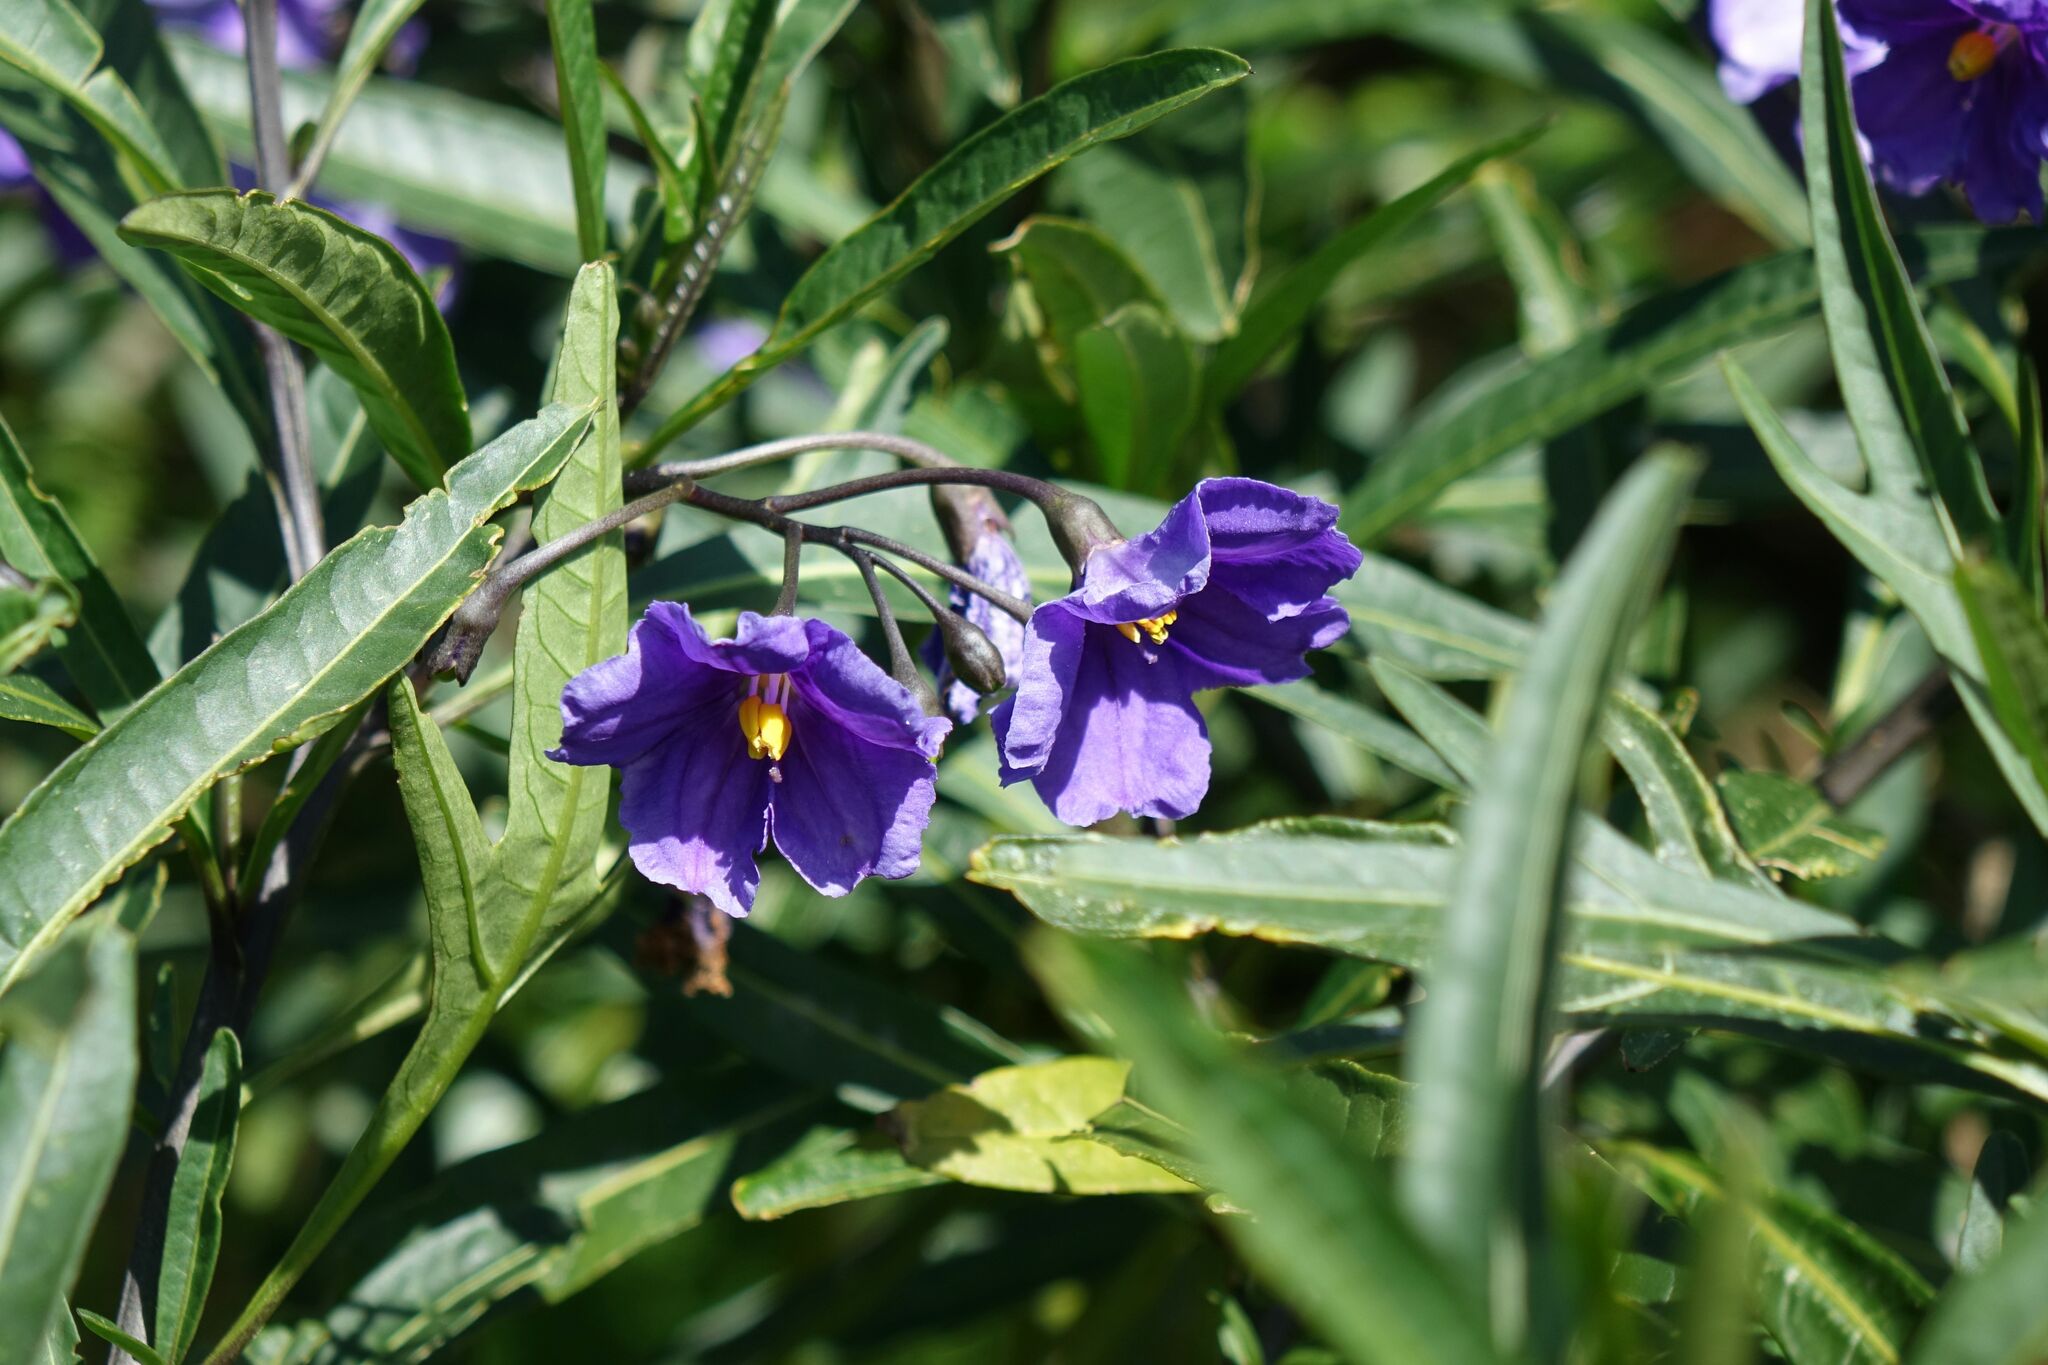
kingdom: Plantae
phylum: Tracheophyta
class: Magnoliopsida
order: Solanales
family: Solanaceae
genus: Solanum
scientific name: Solanum laciniatum
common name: Kangaroo-apple
